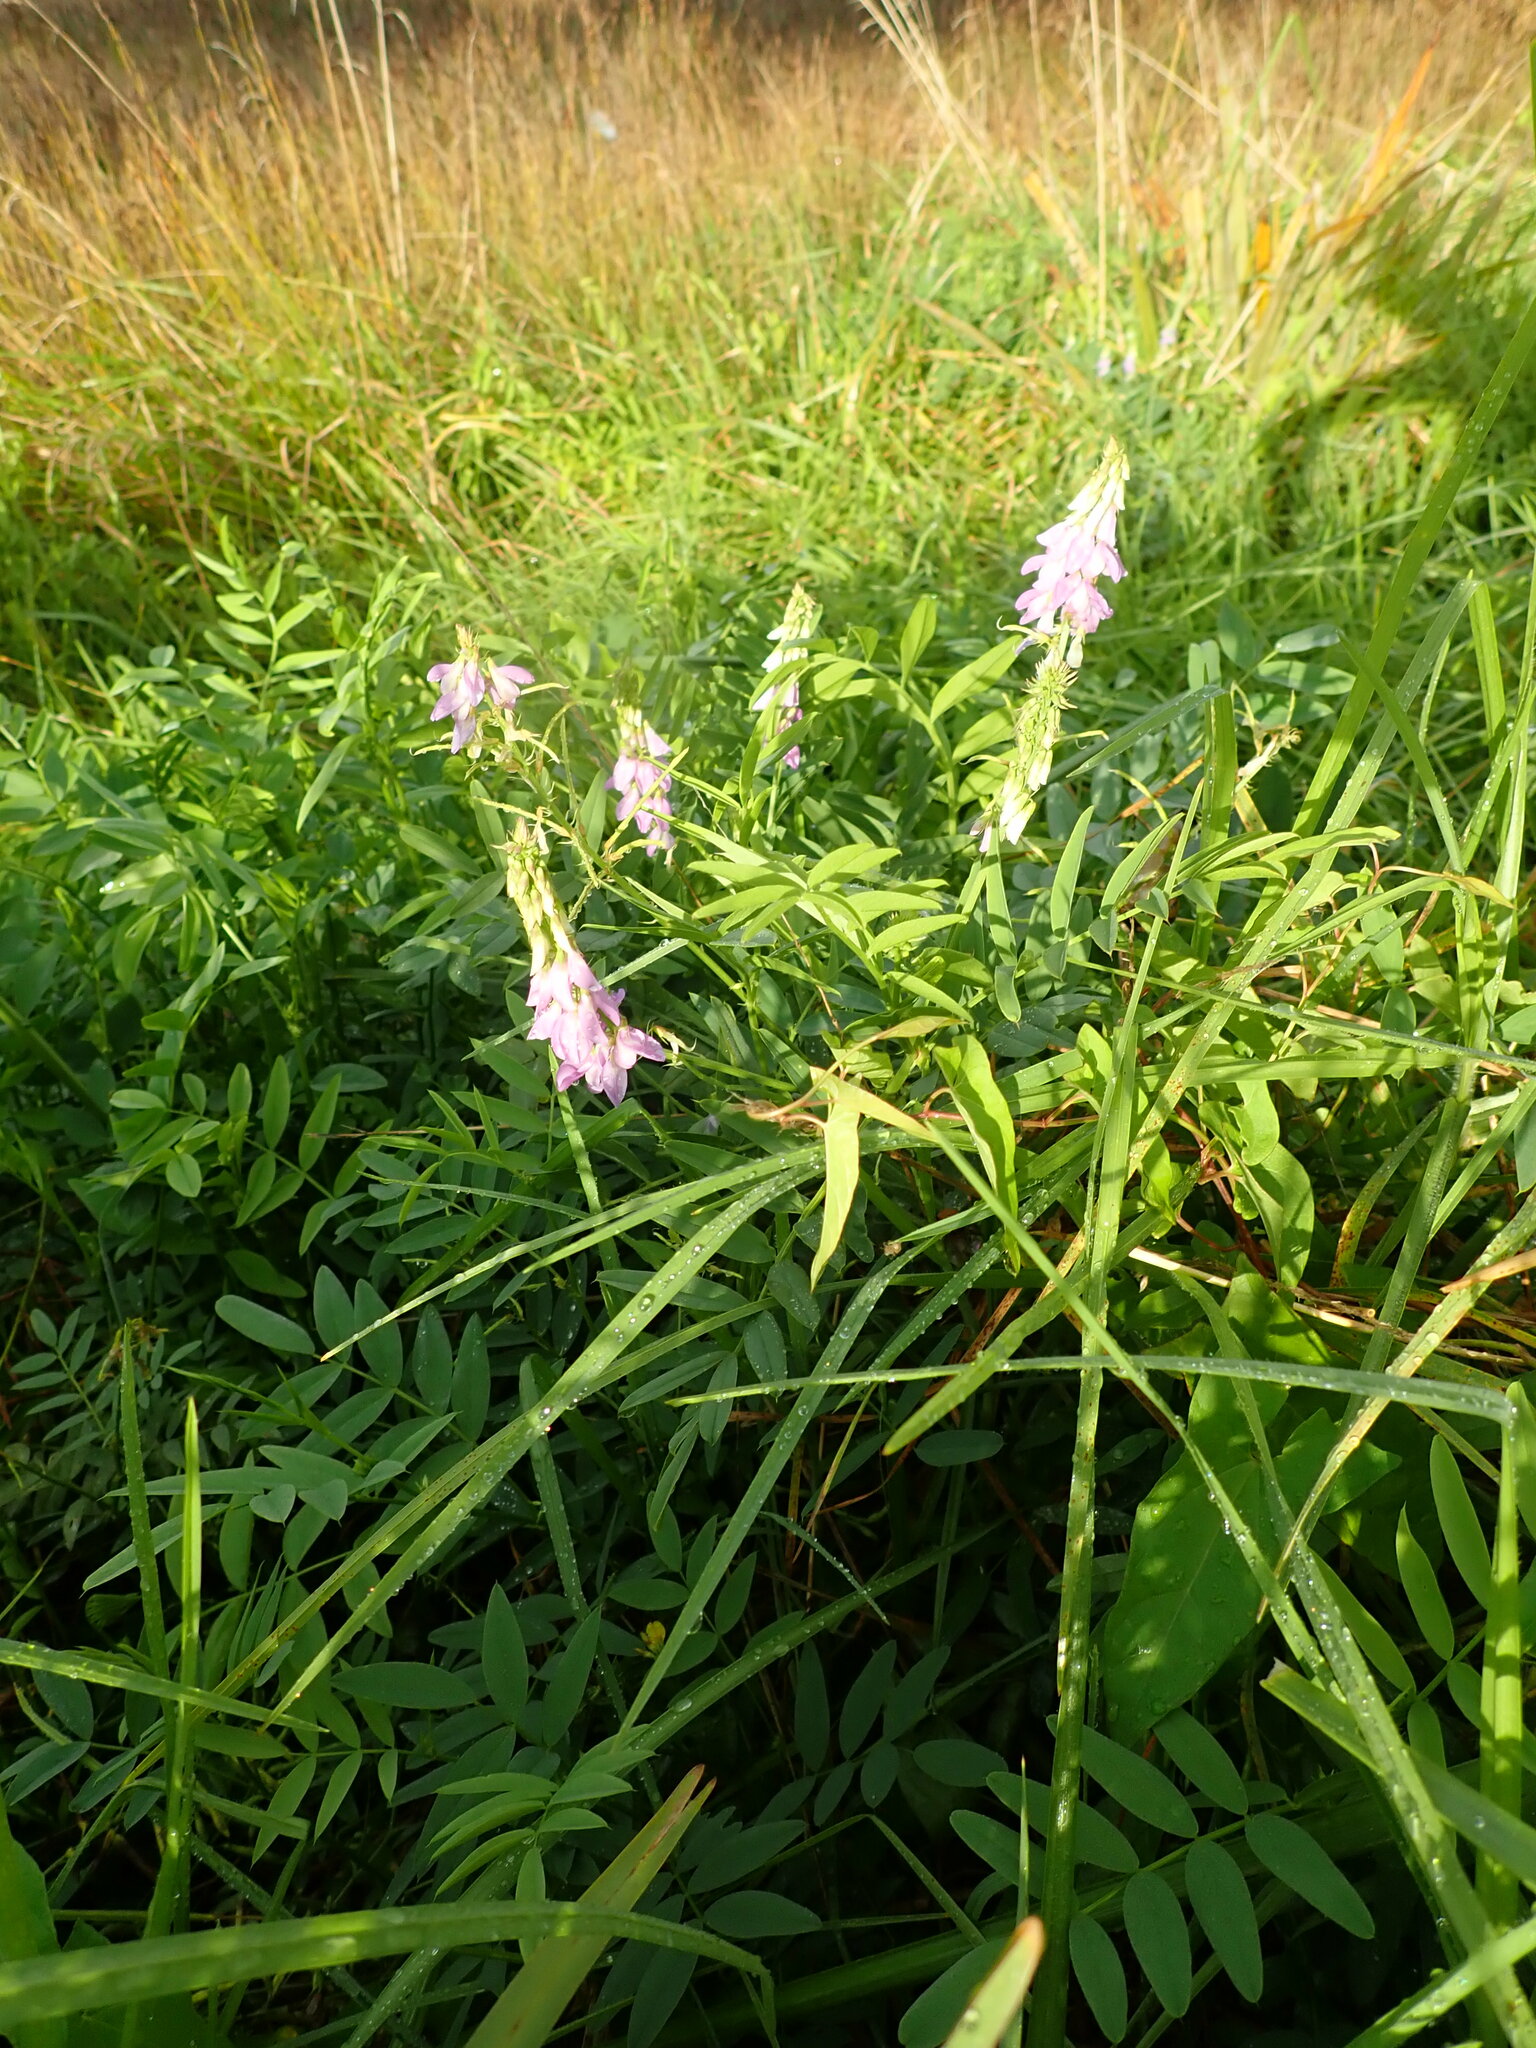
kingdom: Plantae
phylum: Tracheophyta
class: Magnoliopsida
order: Fabales
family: Fabaceae
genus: Galega
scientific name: Galega officinalis
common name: Goat's-rue
